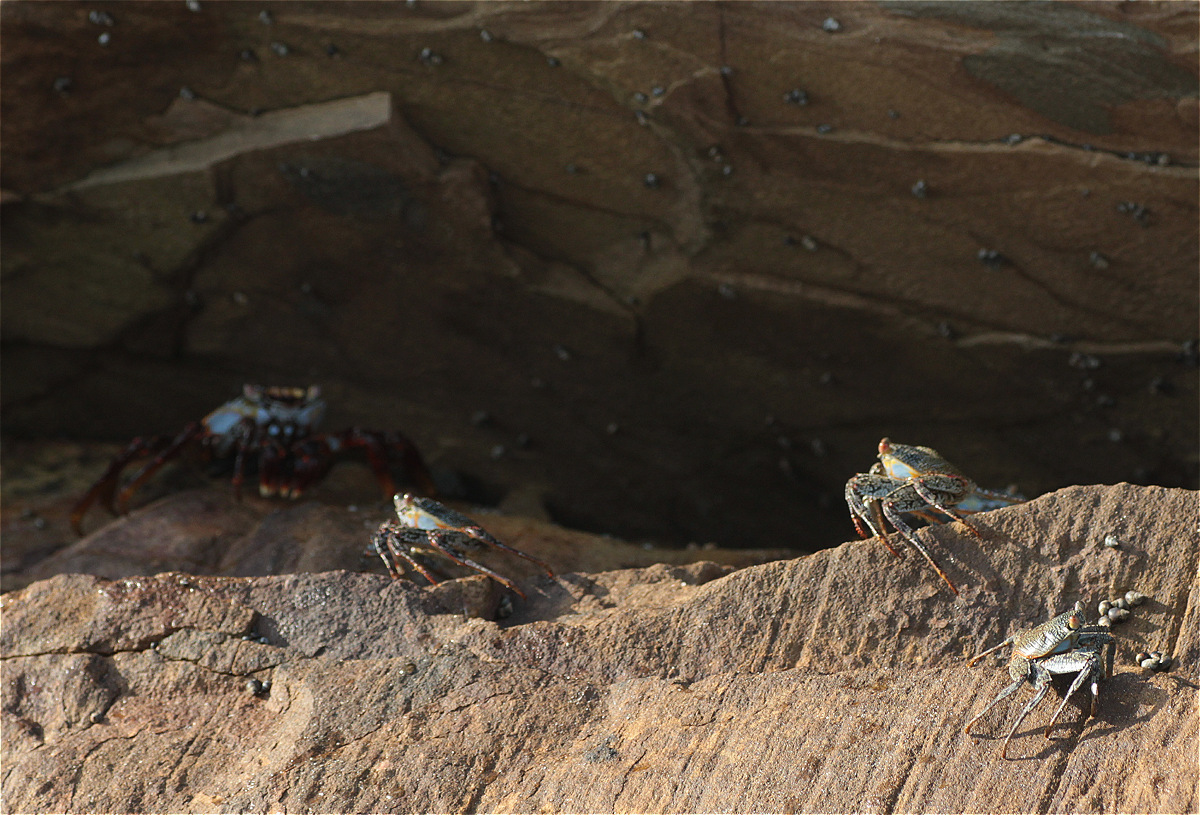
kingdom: Animalia
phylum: Arthropoda
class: Malacostraca
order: Decapoda
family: Grapsidae
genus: Grapsus
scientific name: Grapsus grapsus
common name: Sally lightfoot
